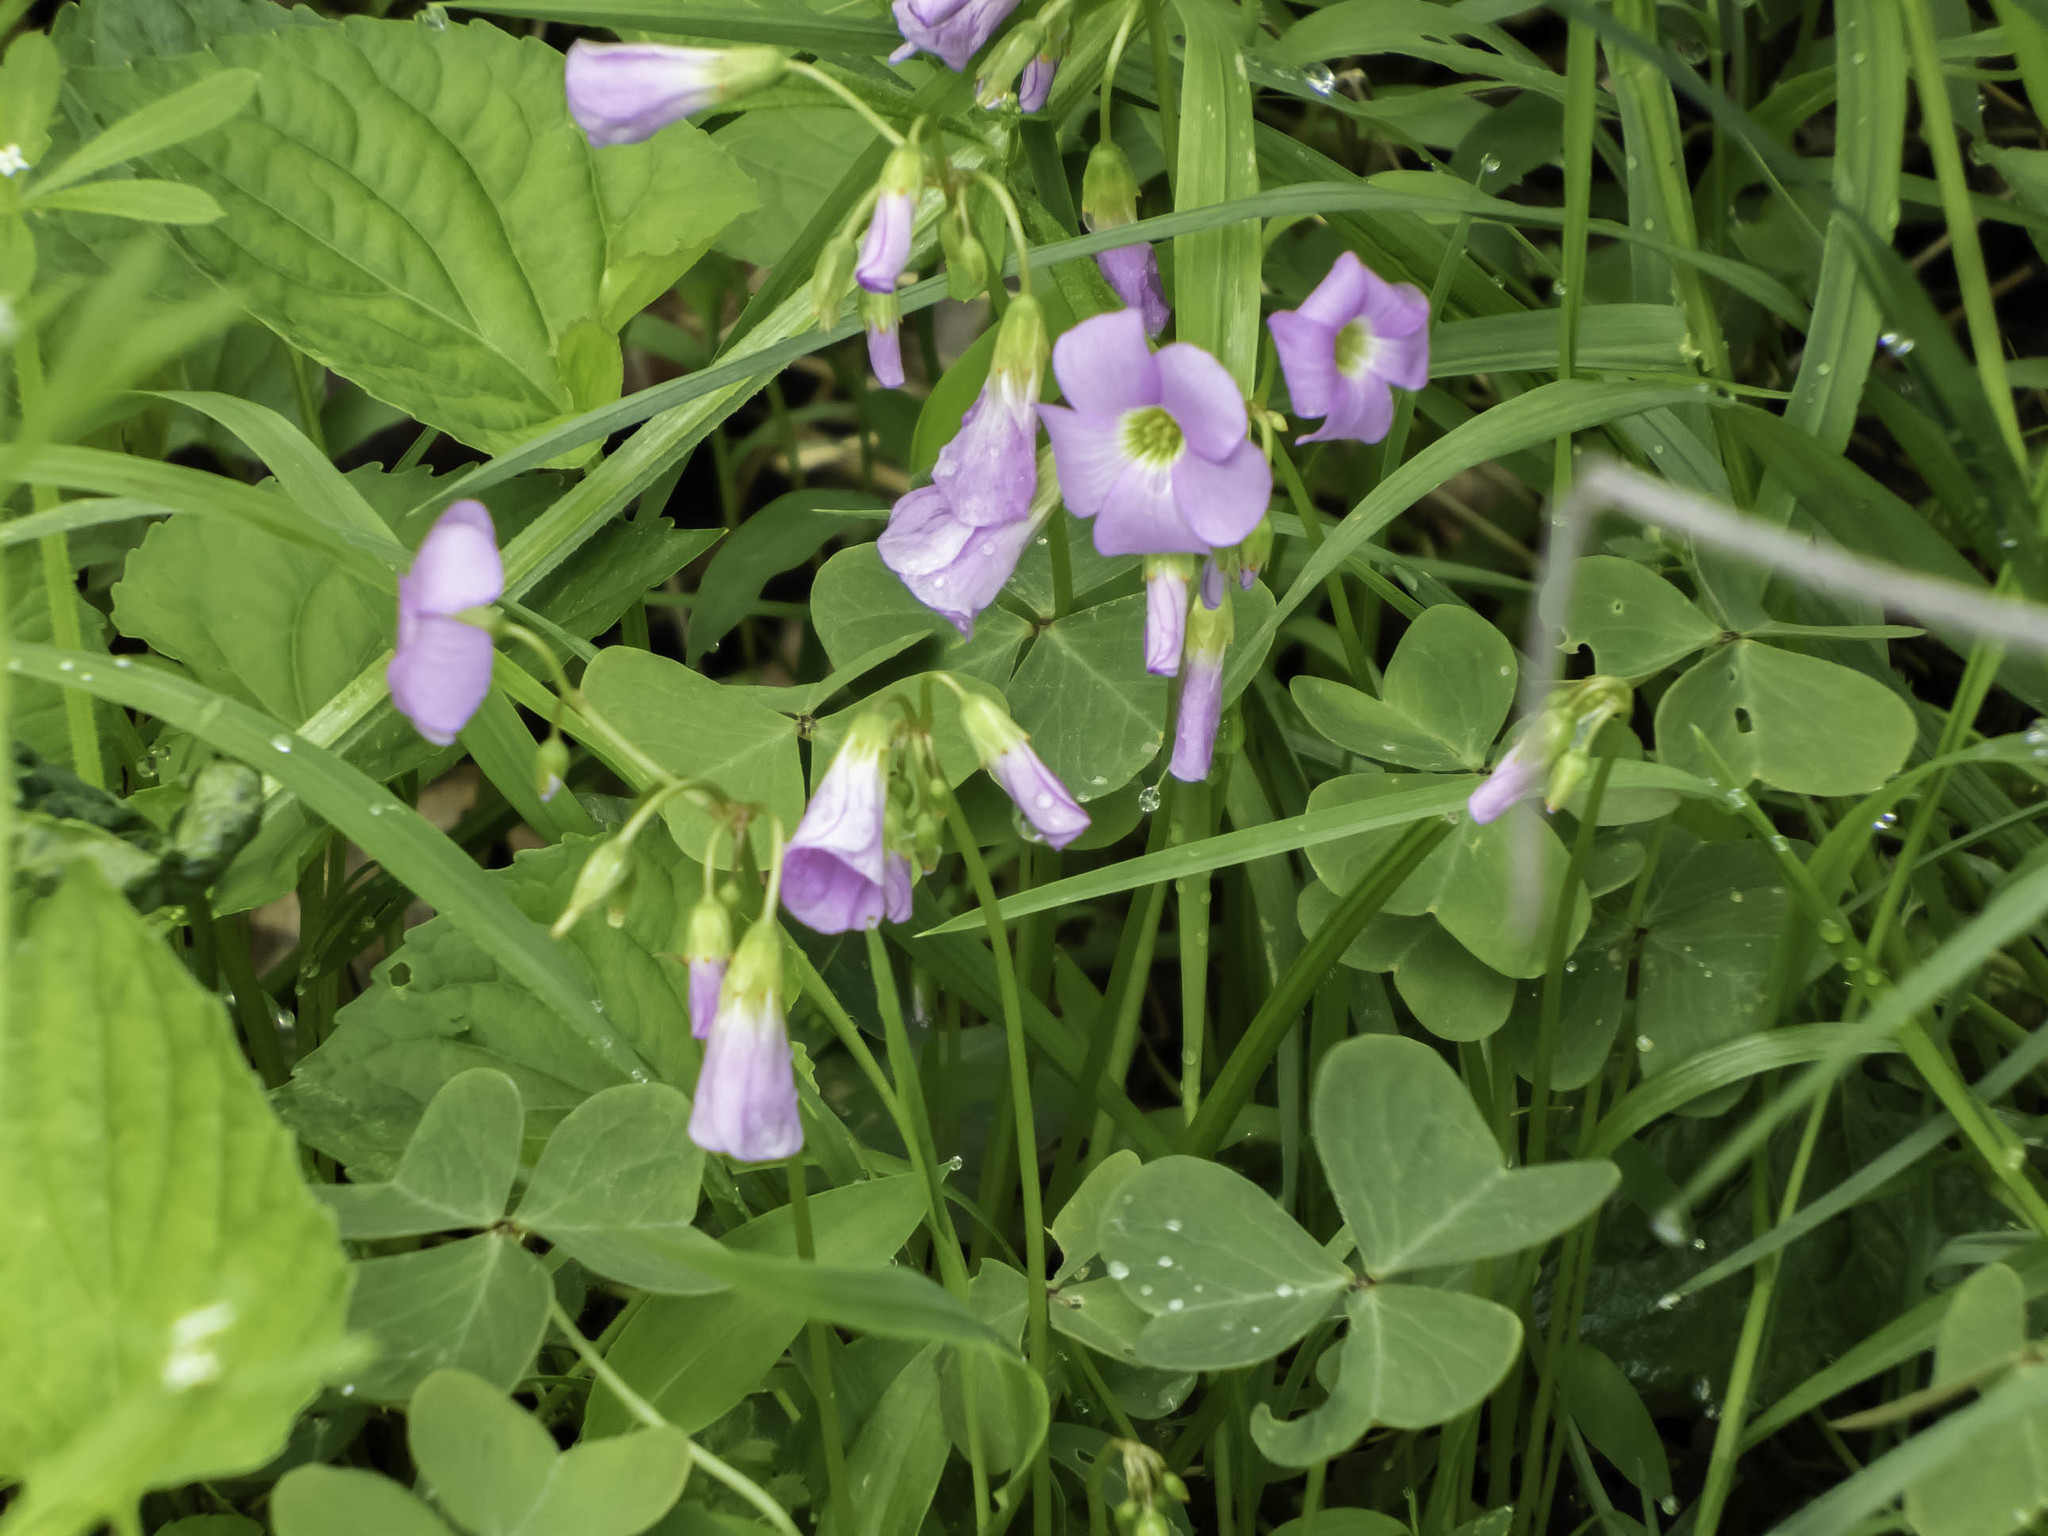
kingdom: Plantae
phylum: Tracheophyta
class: Magnoliopsida
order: Oxalidales
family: Oxalidaceae
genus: Oxalis
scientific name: Oxalis violacea
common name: Violet wood-sorrel
